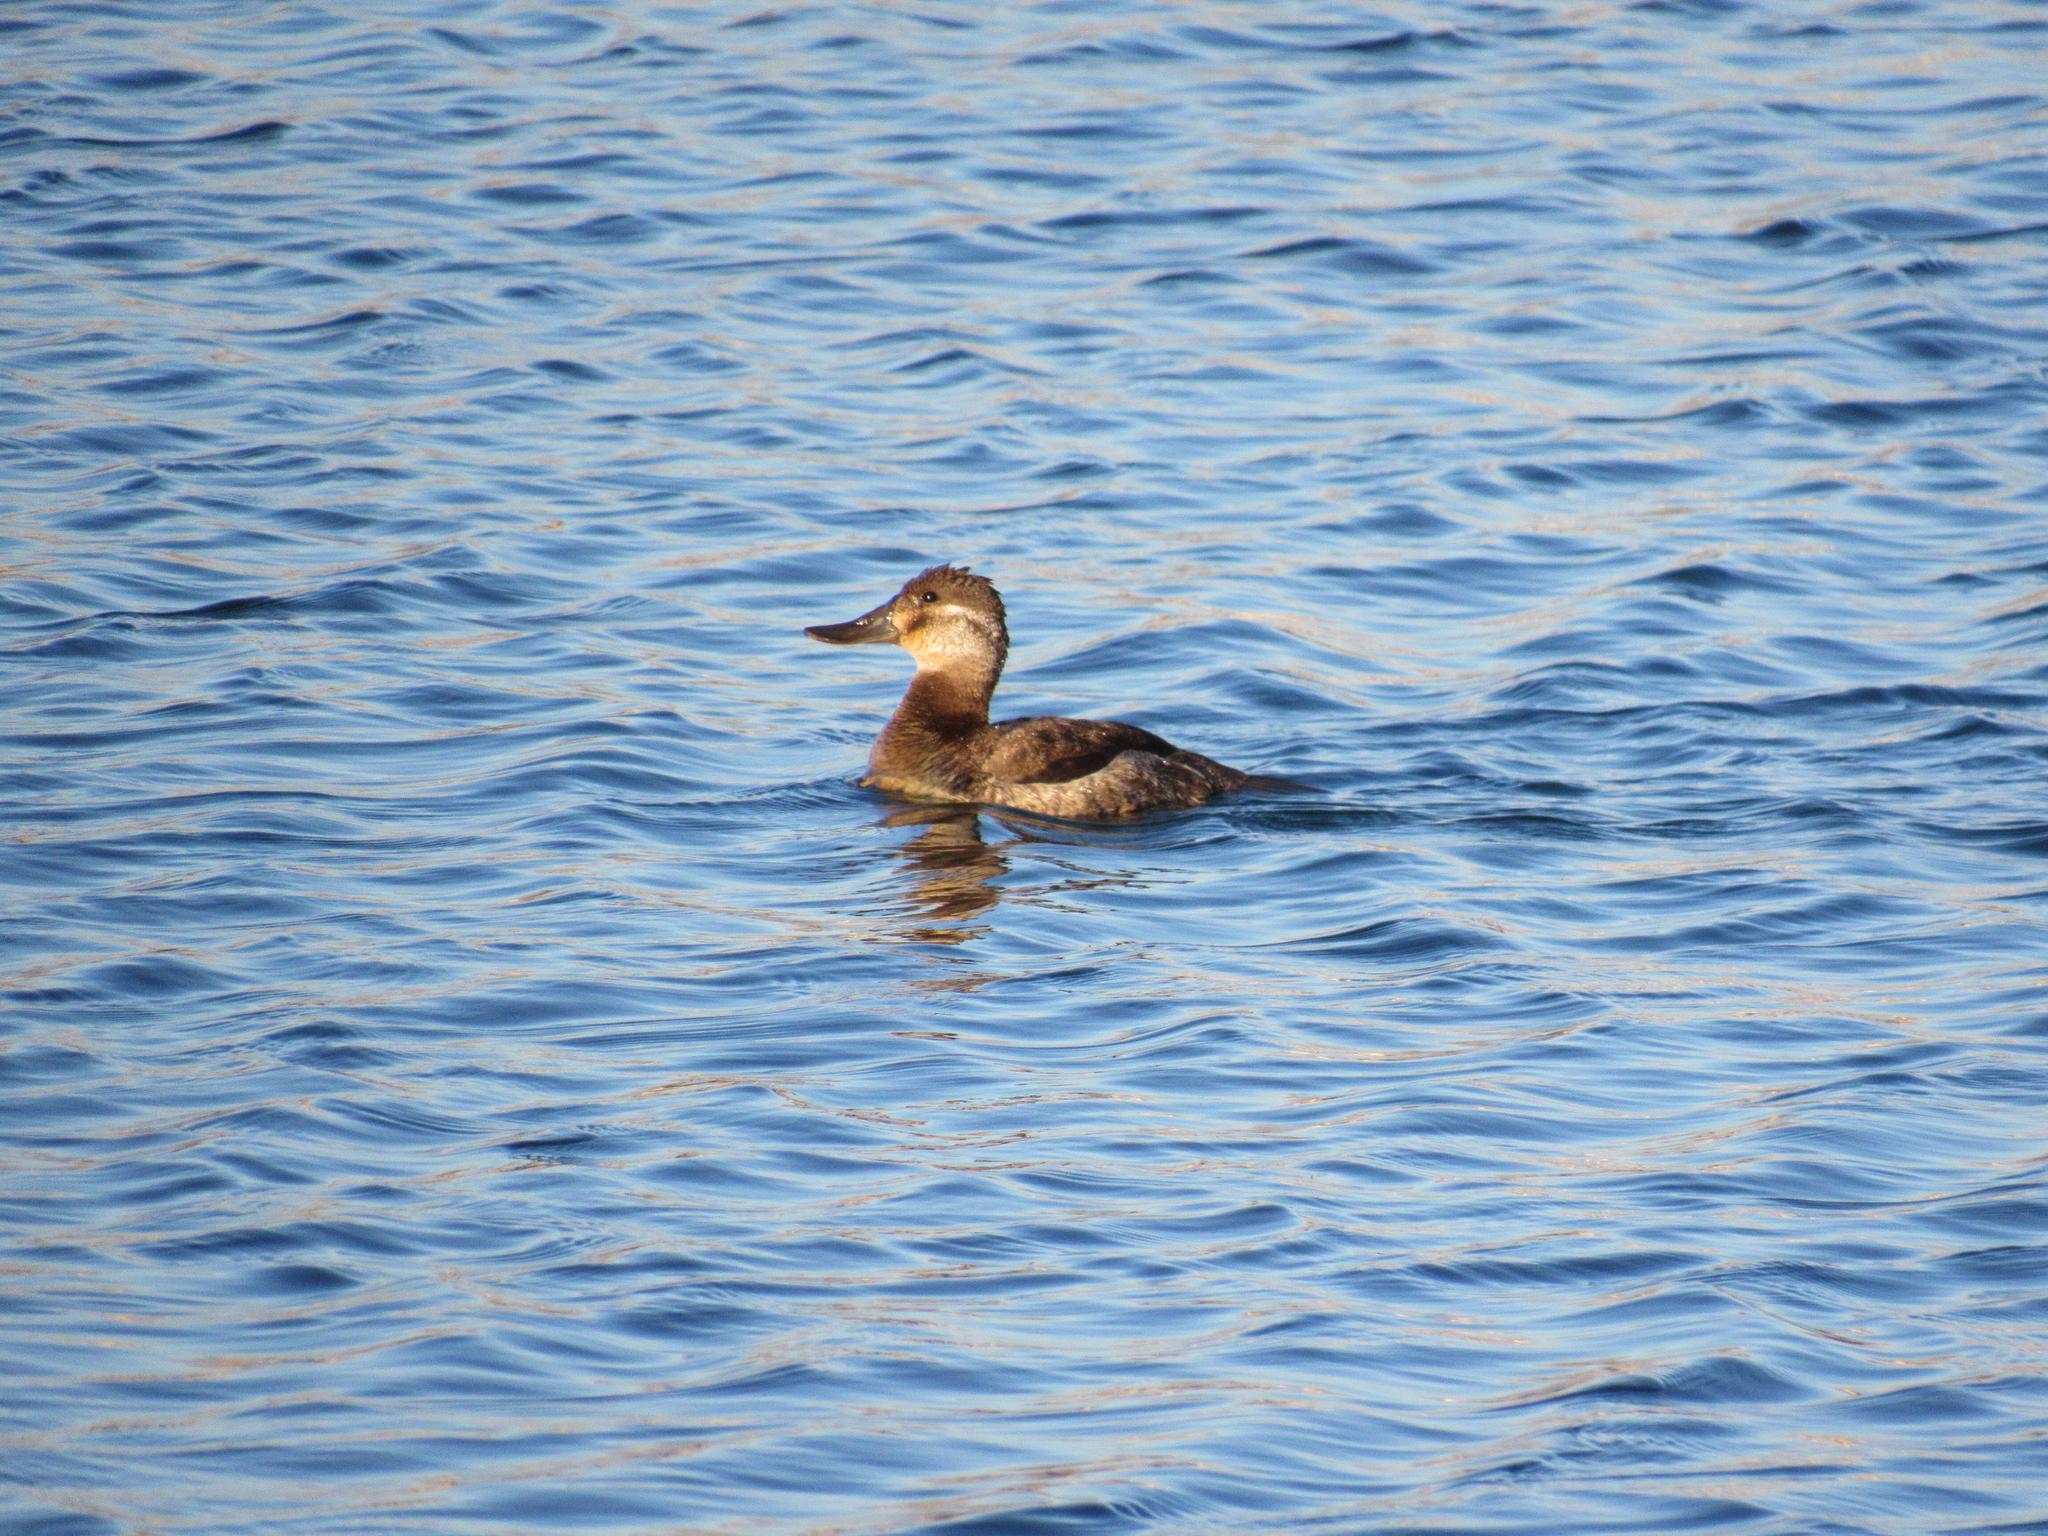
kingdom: Animalia
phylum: Chordata
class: Aves
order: Anseriformes
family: Anatidae
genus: Oxyura
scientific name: Oxyura jamaicensis
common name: Ruddy duck
